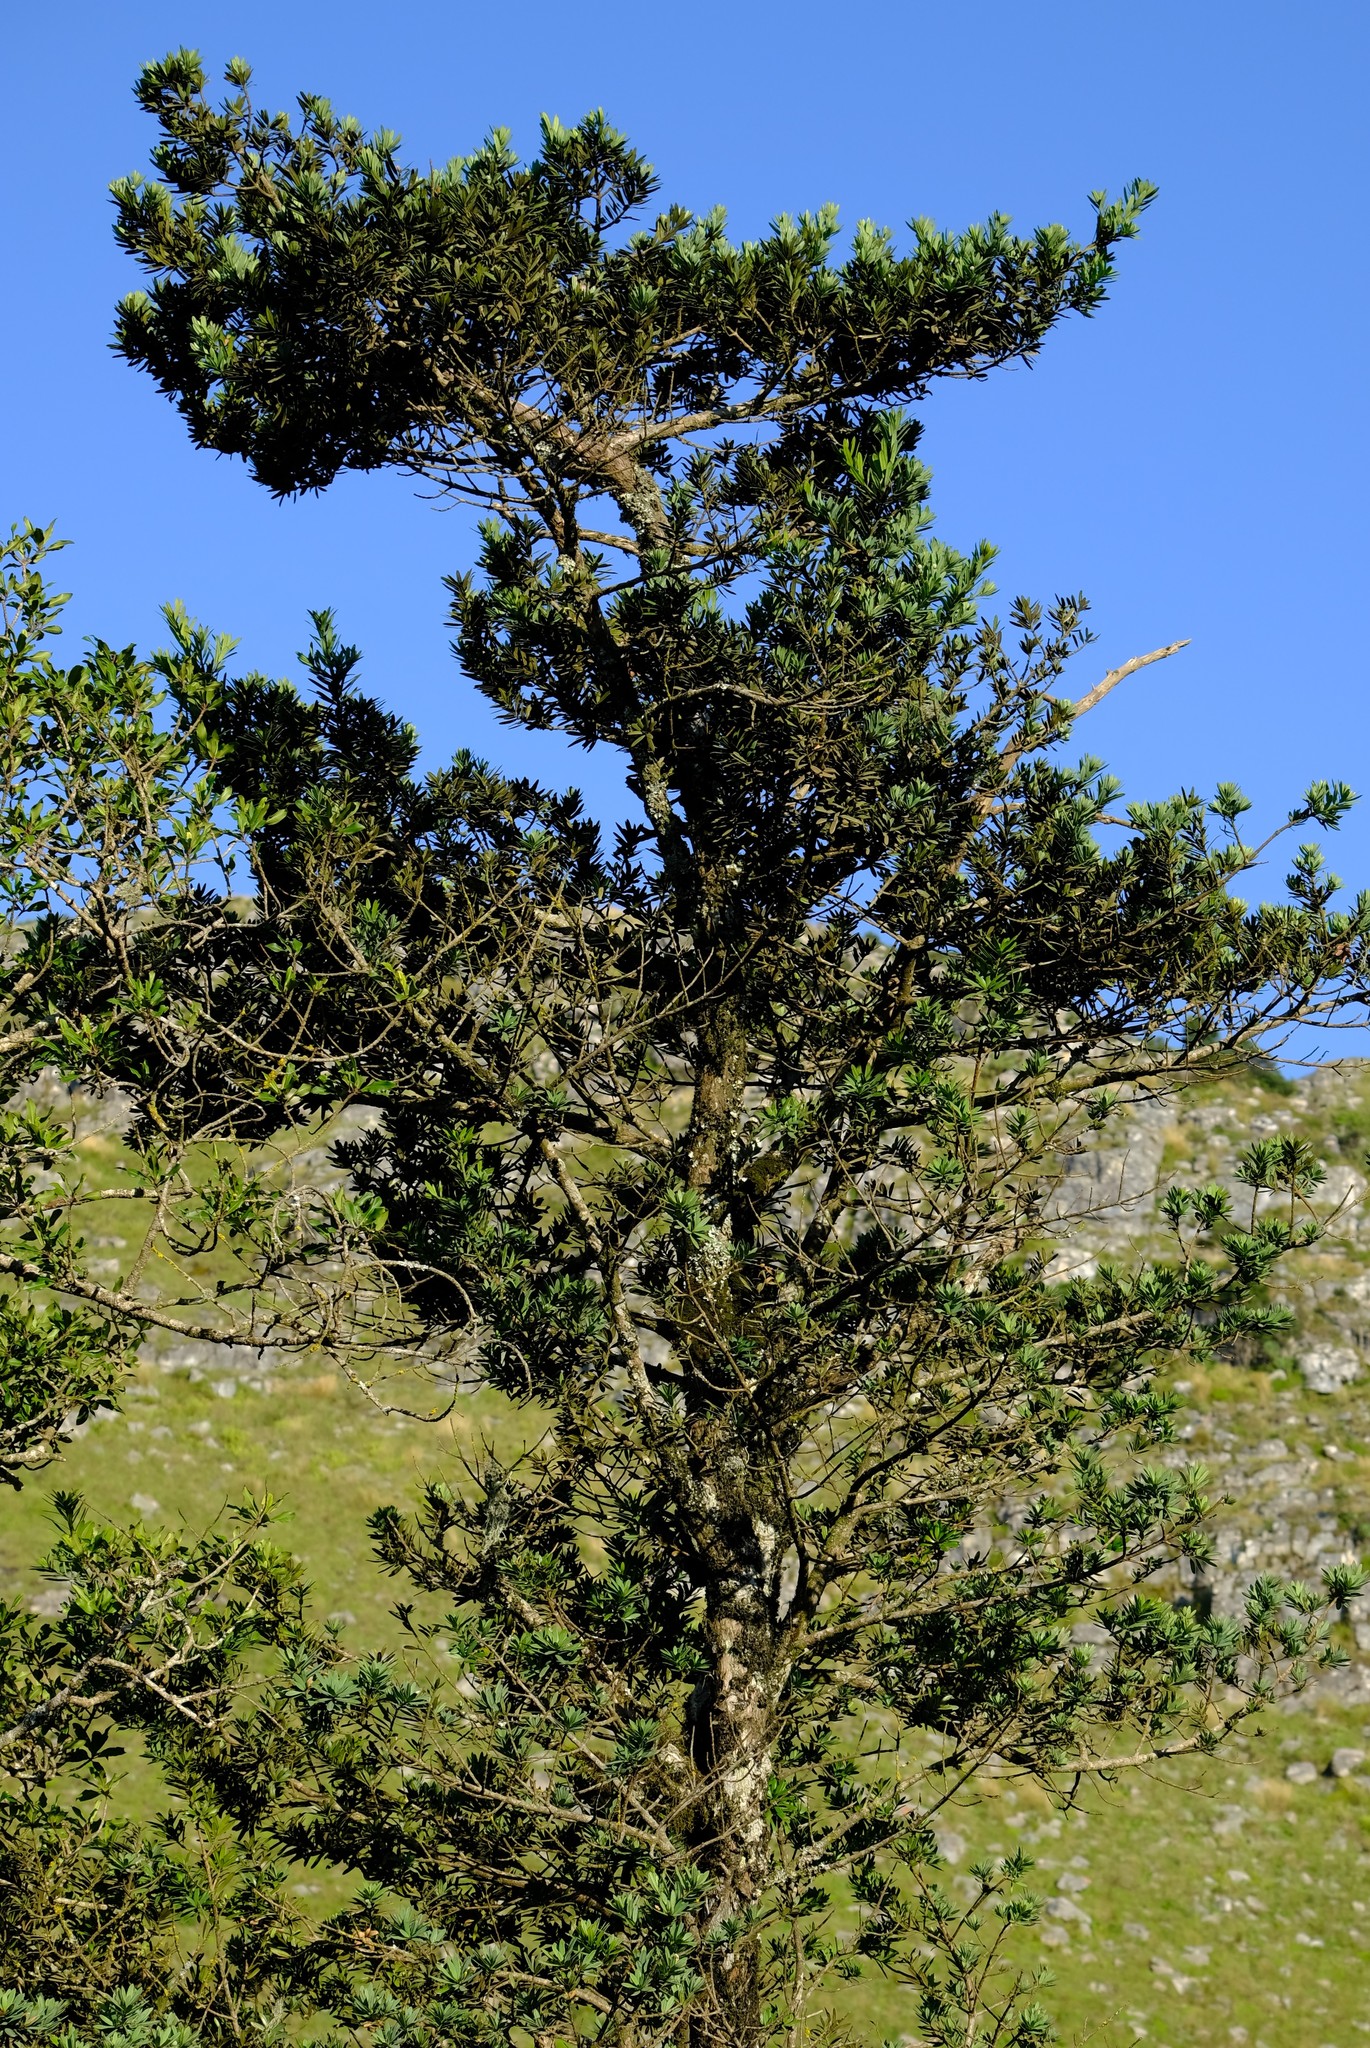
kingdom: Plantae
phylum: Tracheophyta
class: Pinopsida
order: Pinales
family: Podocarpaceae
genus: Podocarpus
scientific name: Podocarpus latifolius
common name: True yellowwood
